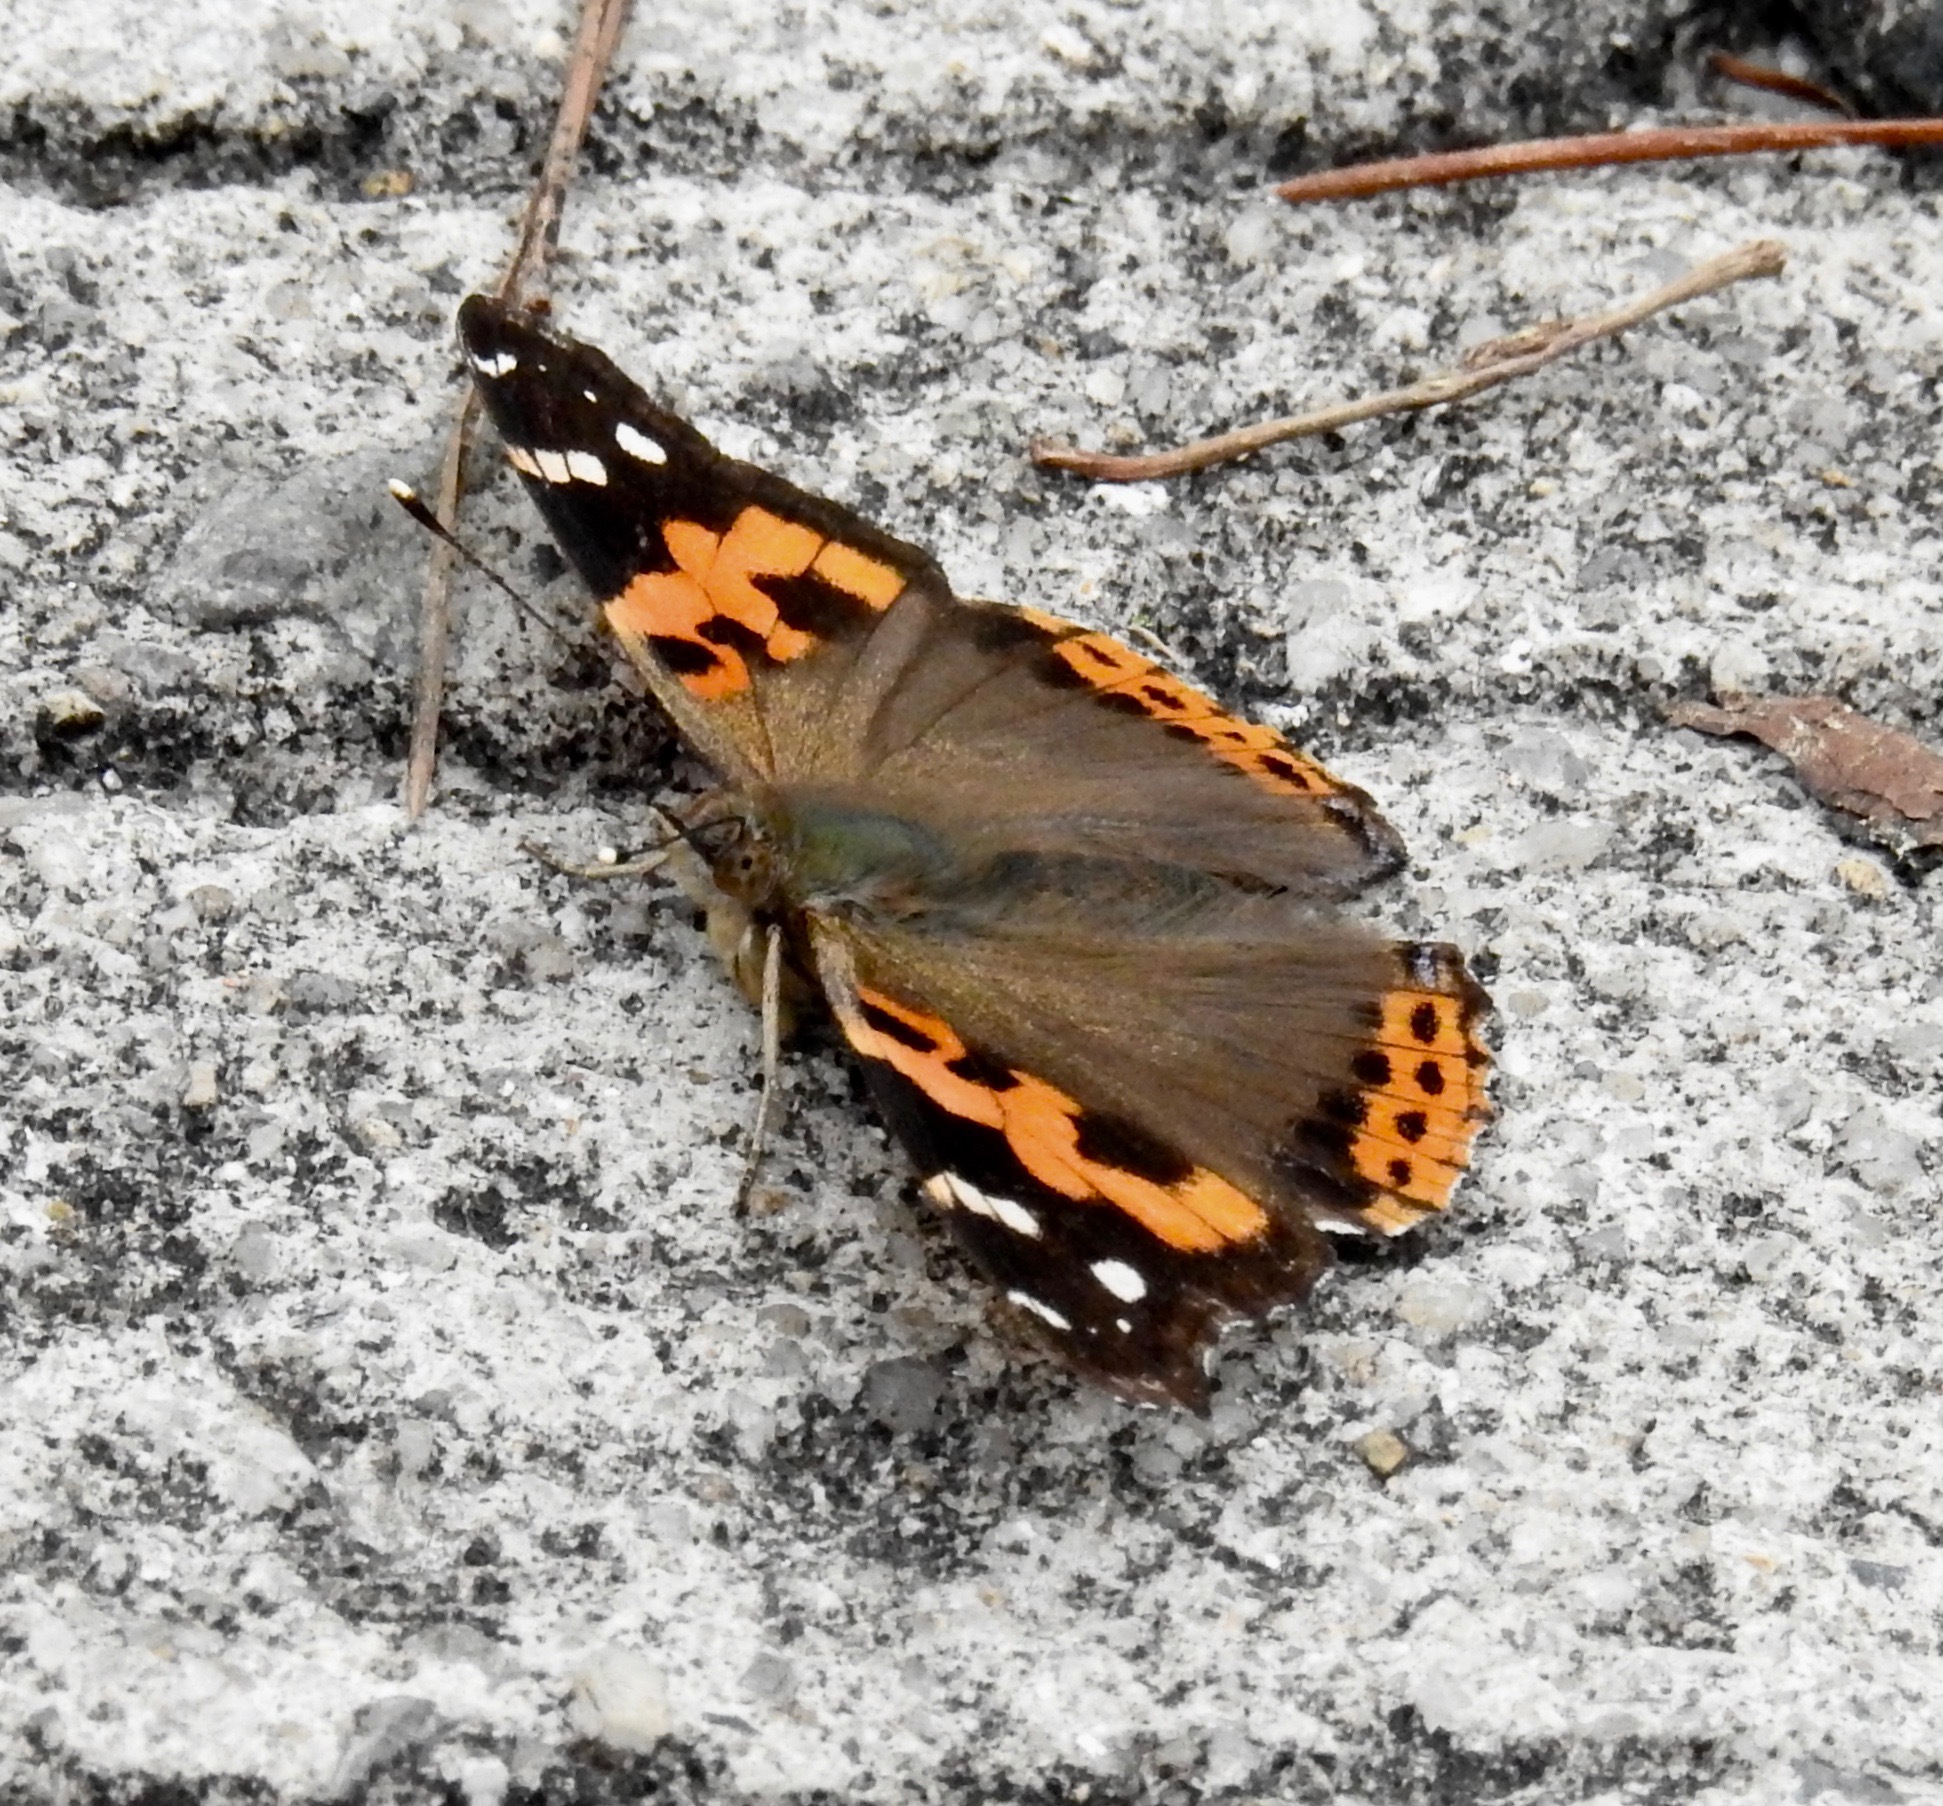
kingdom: Animalia
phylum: Arthropoda
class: Insecta
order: Lepidoptera
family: Nymphalidae
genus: Vanessa
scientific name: Vanessa indica
